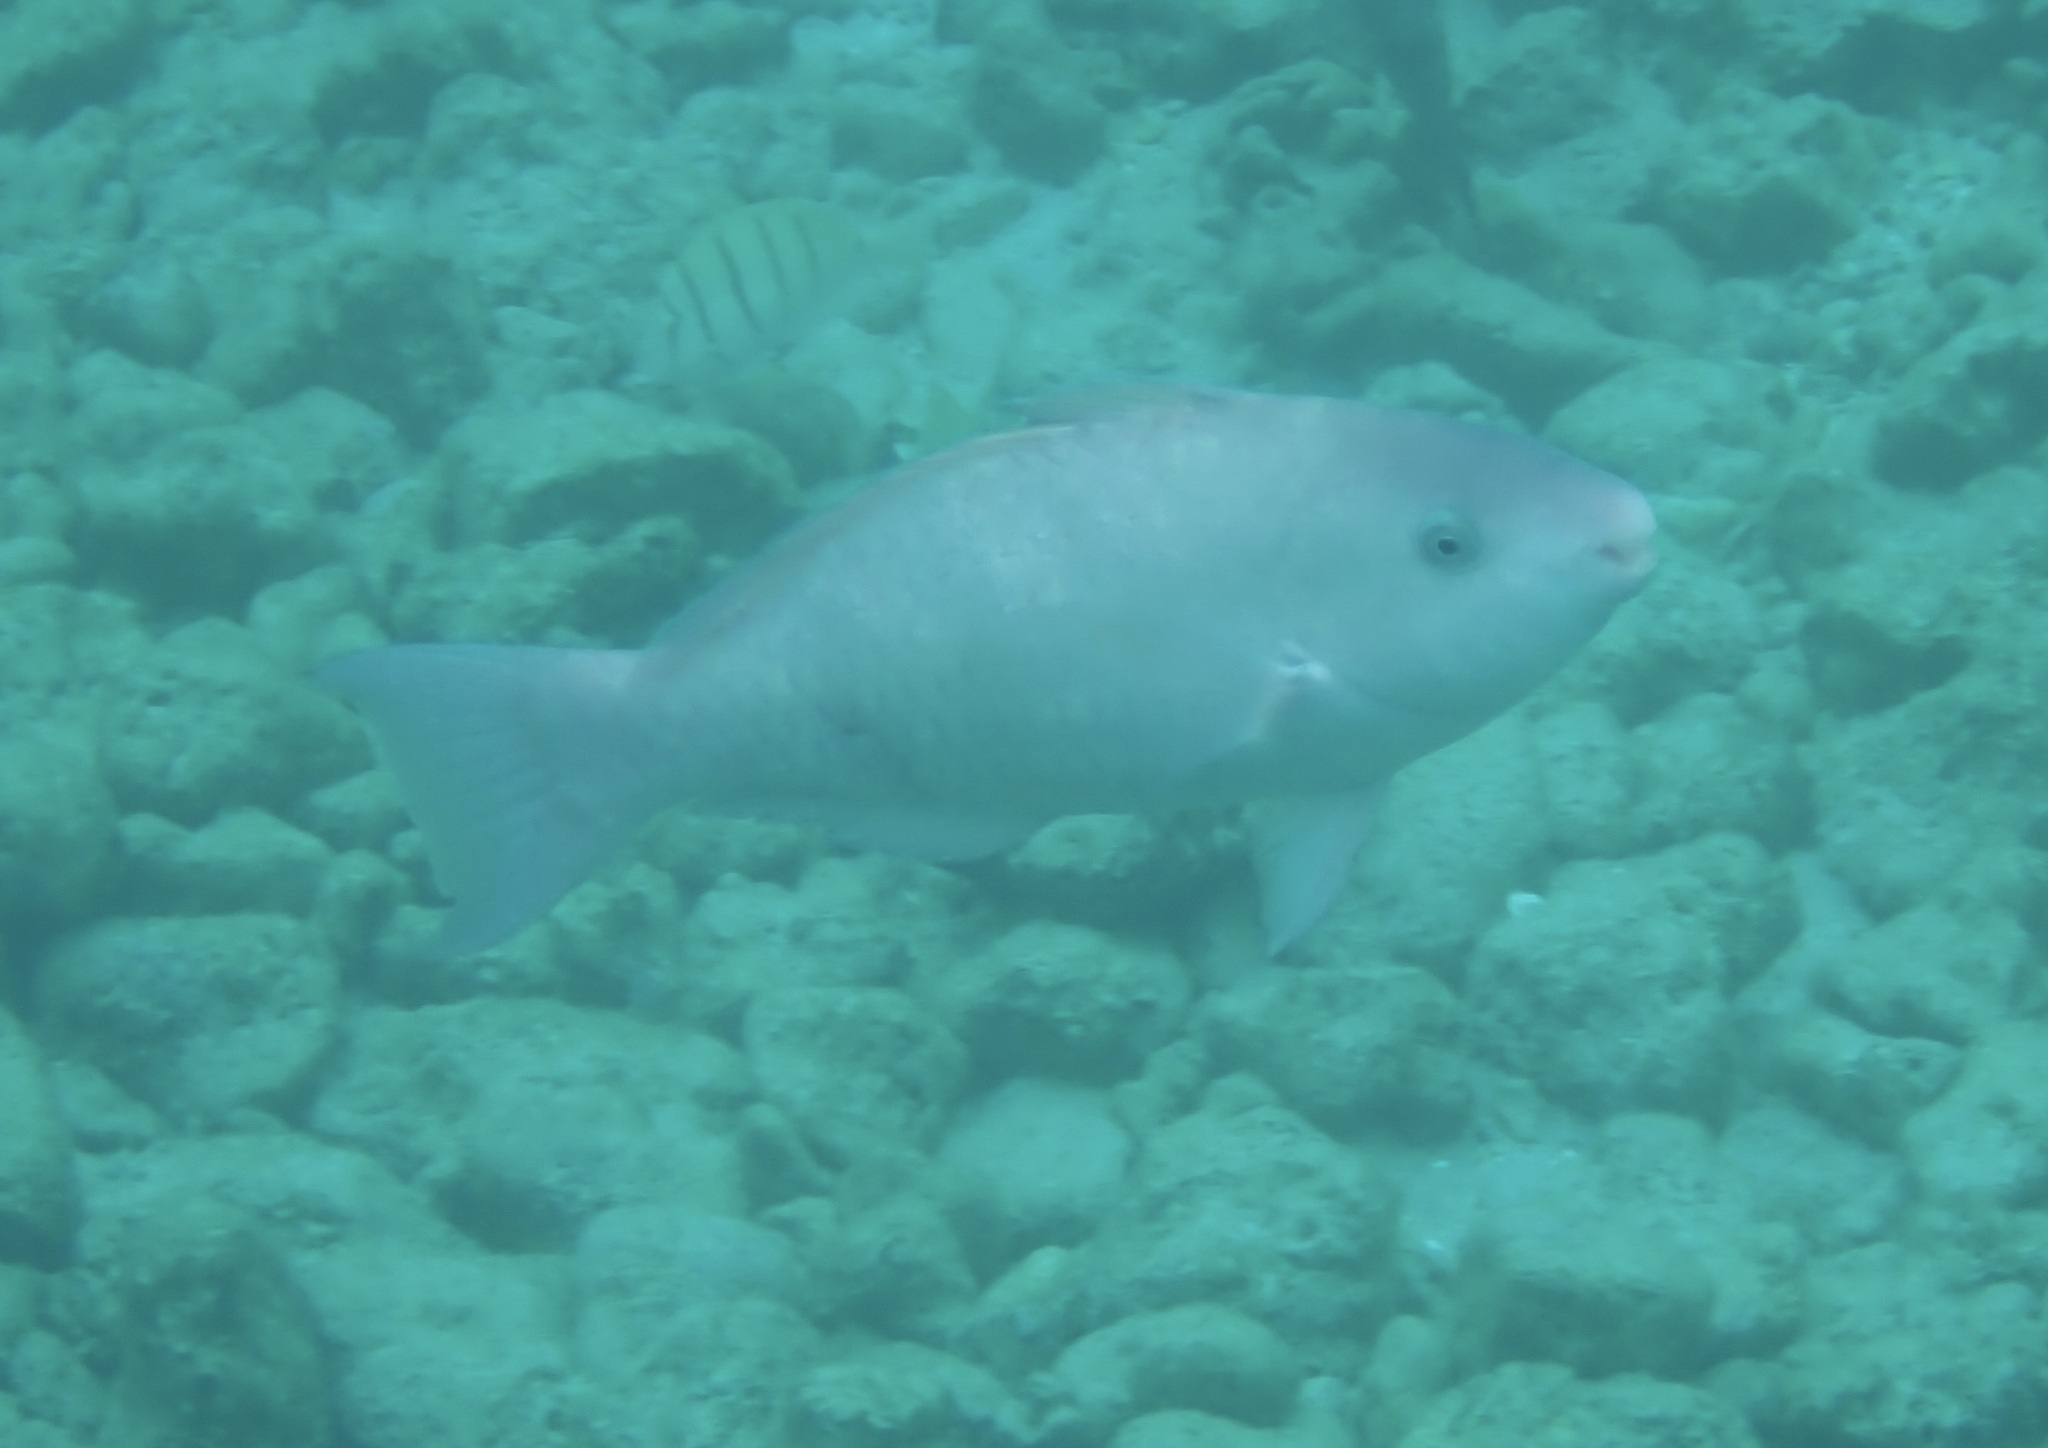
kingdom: Animalia
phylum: Chordata
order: Perciformes
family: Scaridae
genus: Scarus
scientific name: Scarus psittacus
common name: Palenose parrotfish
